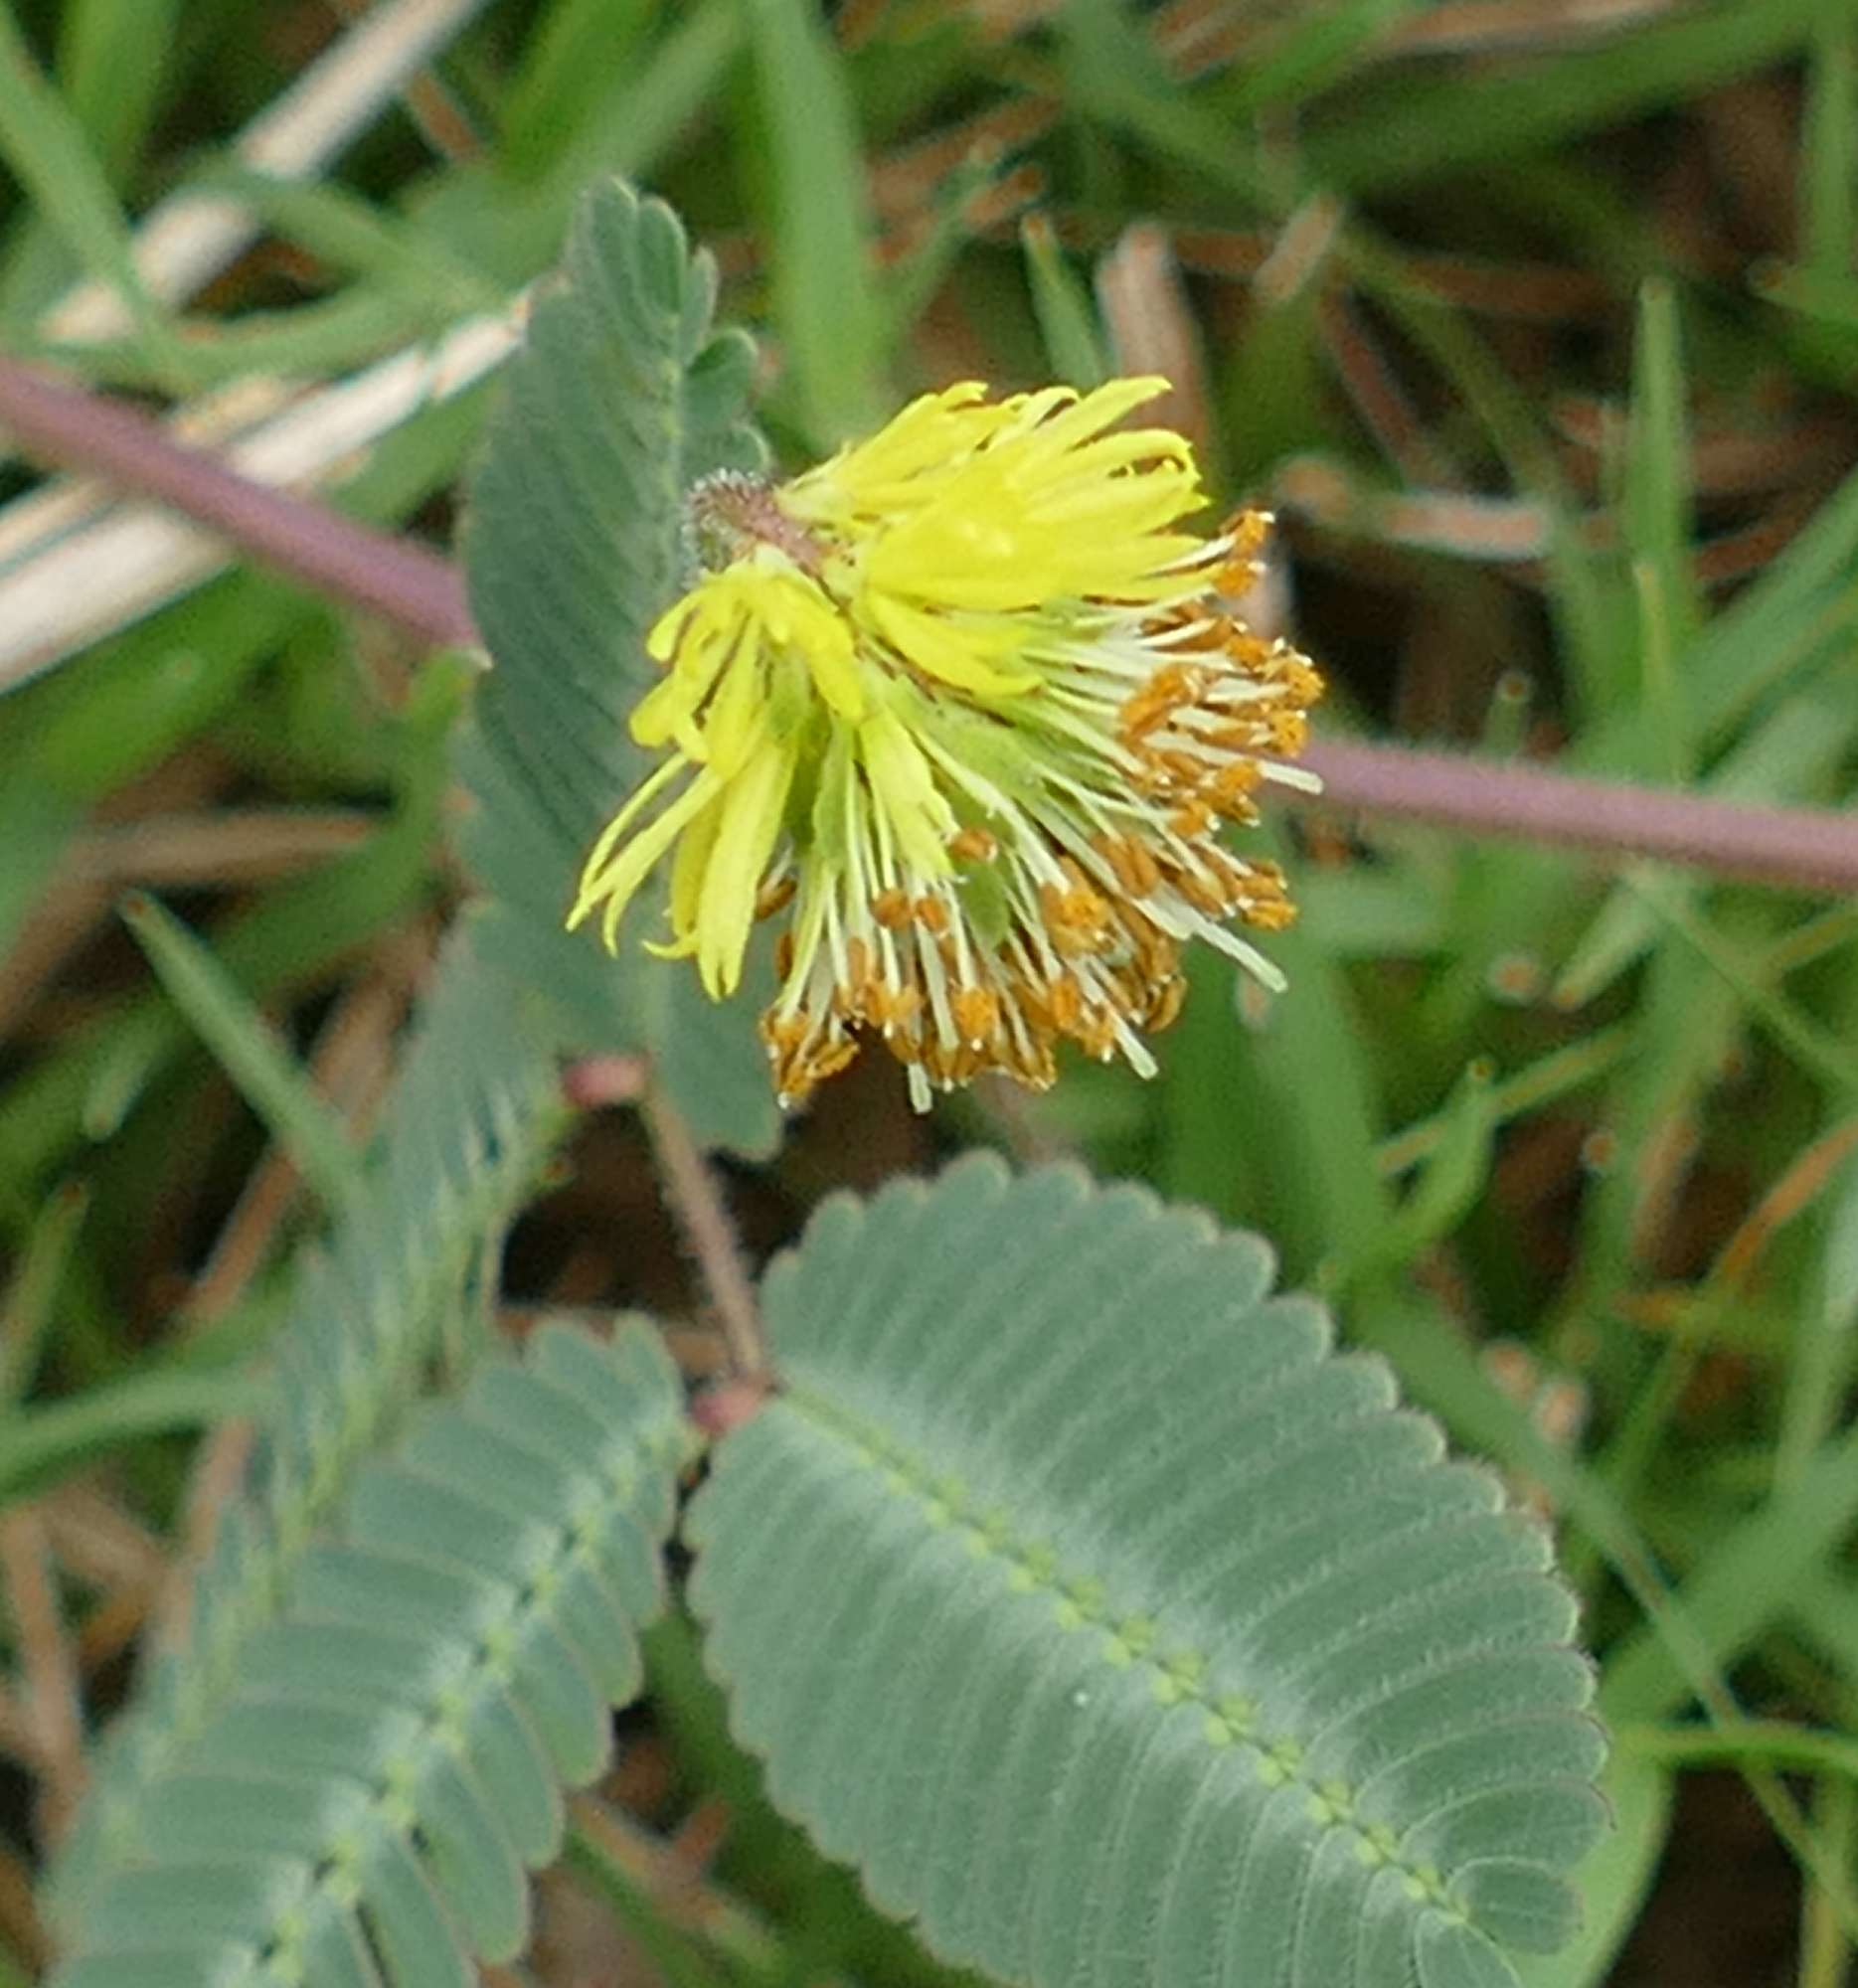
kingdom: Plantae
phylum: Tracheophyta
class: Magnoliopsida
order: Fabales
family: Fabaceae
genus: Neptunia
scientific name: Neptunia pubescens
